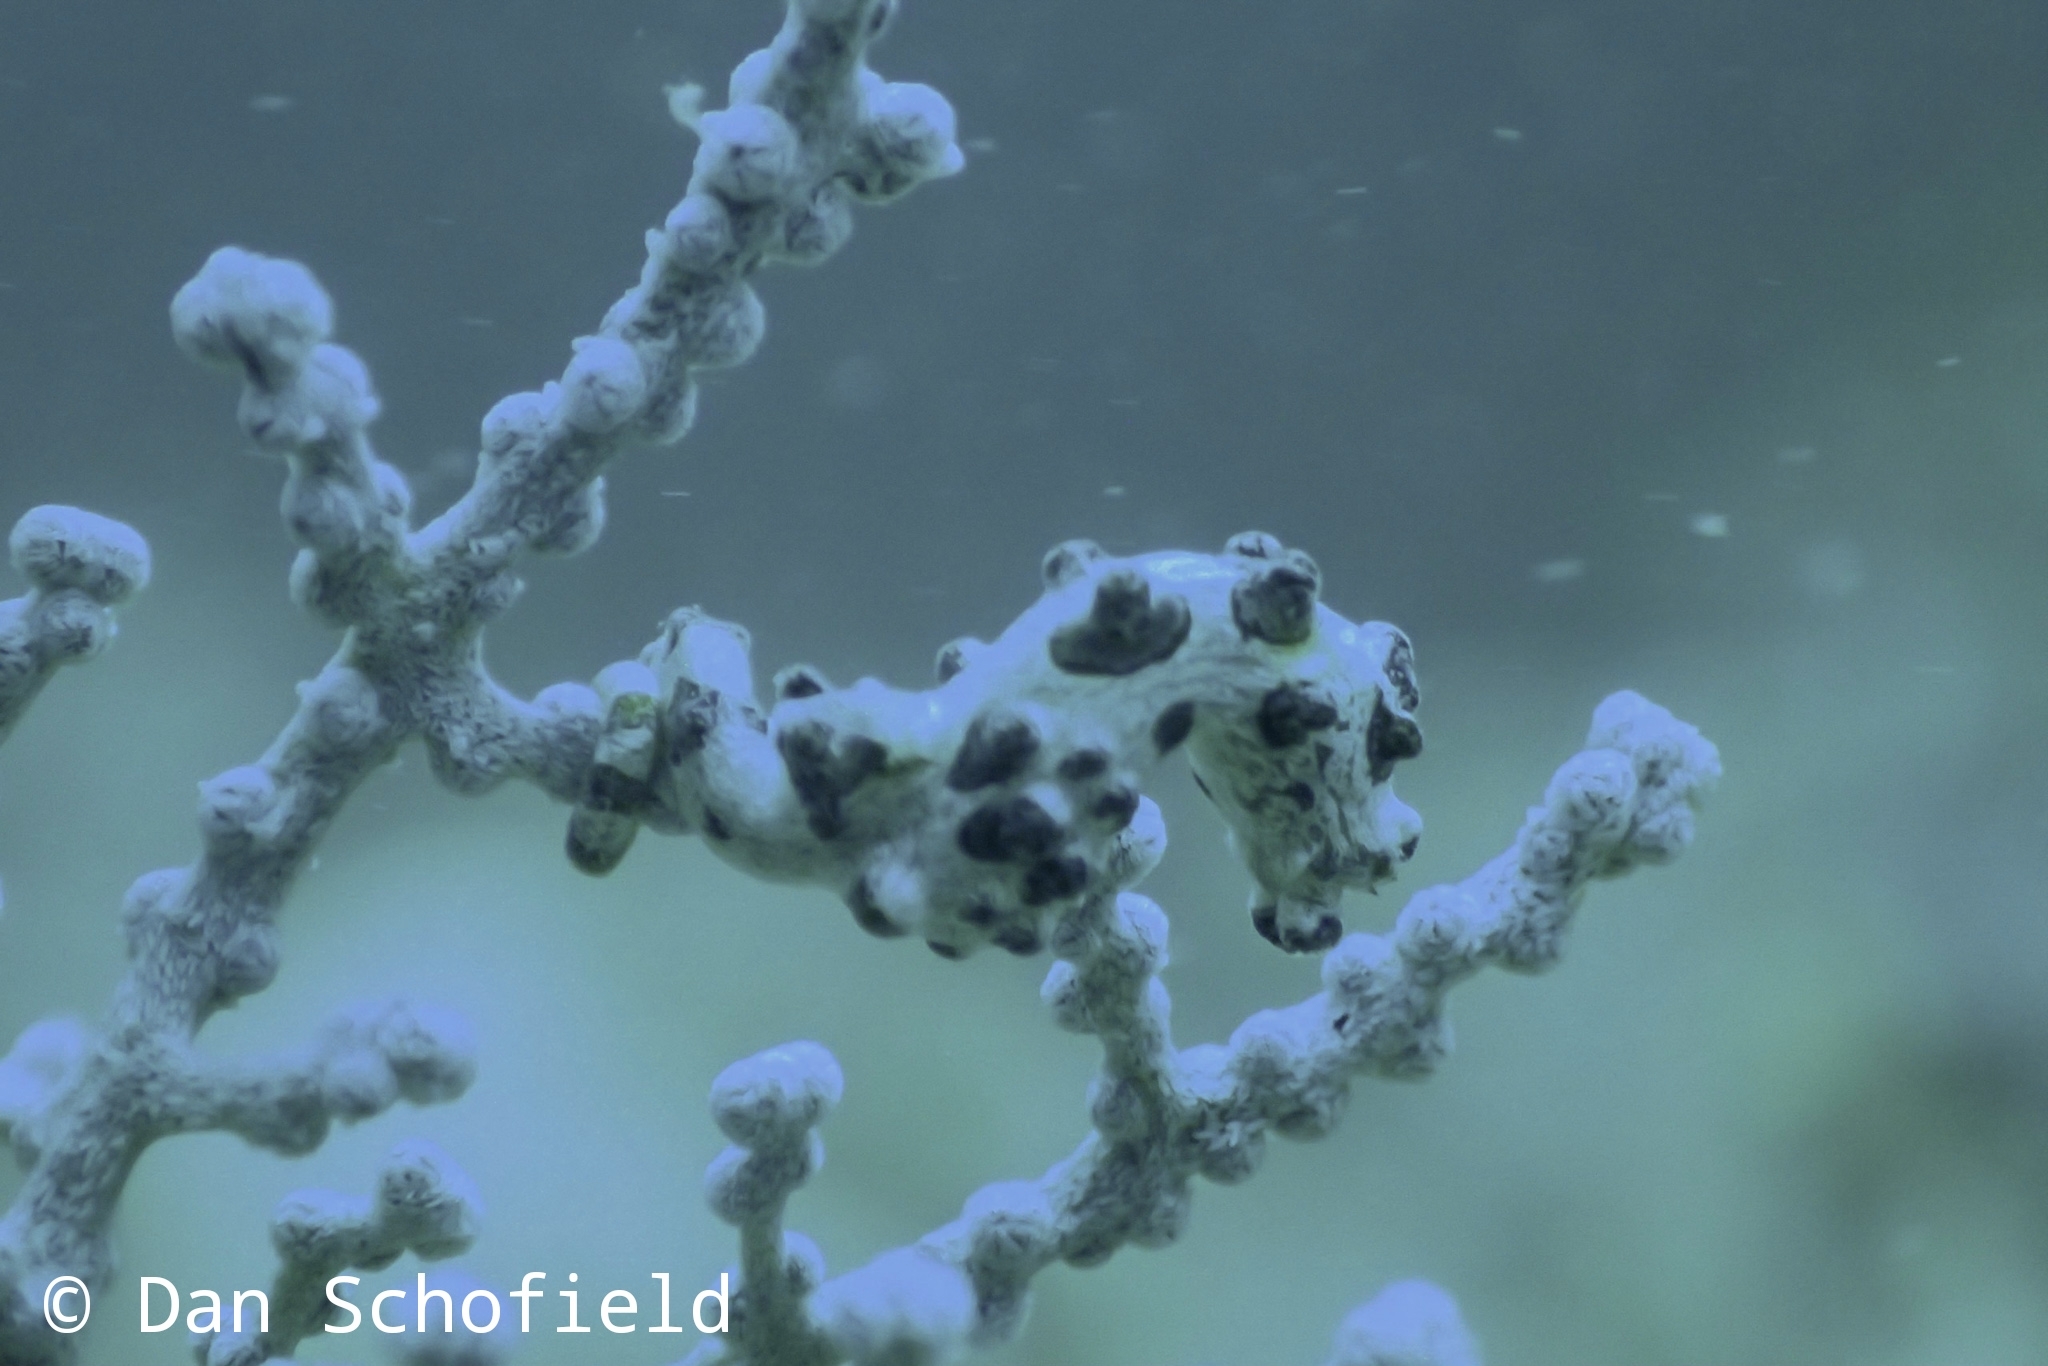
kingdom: Animalia
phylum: Chordata
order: Syngnathiformes
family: Syngnathidae
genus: Hippocampus
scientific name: Hippocampus bargibanti
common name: Bargibant's seahorse
